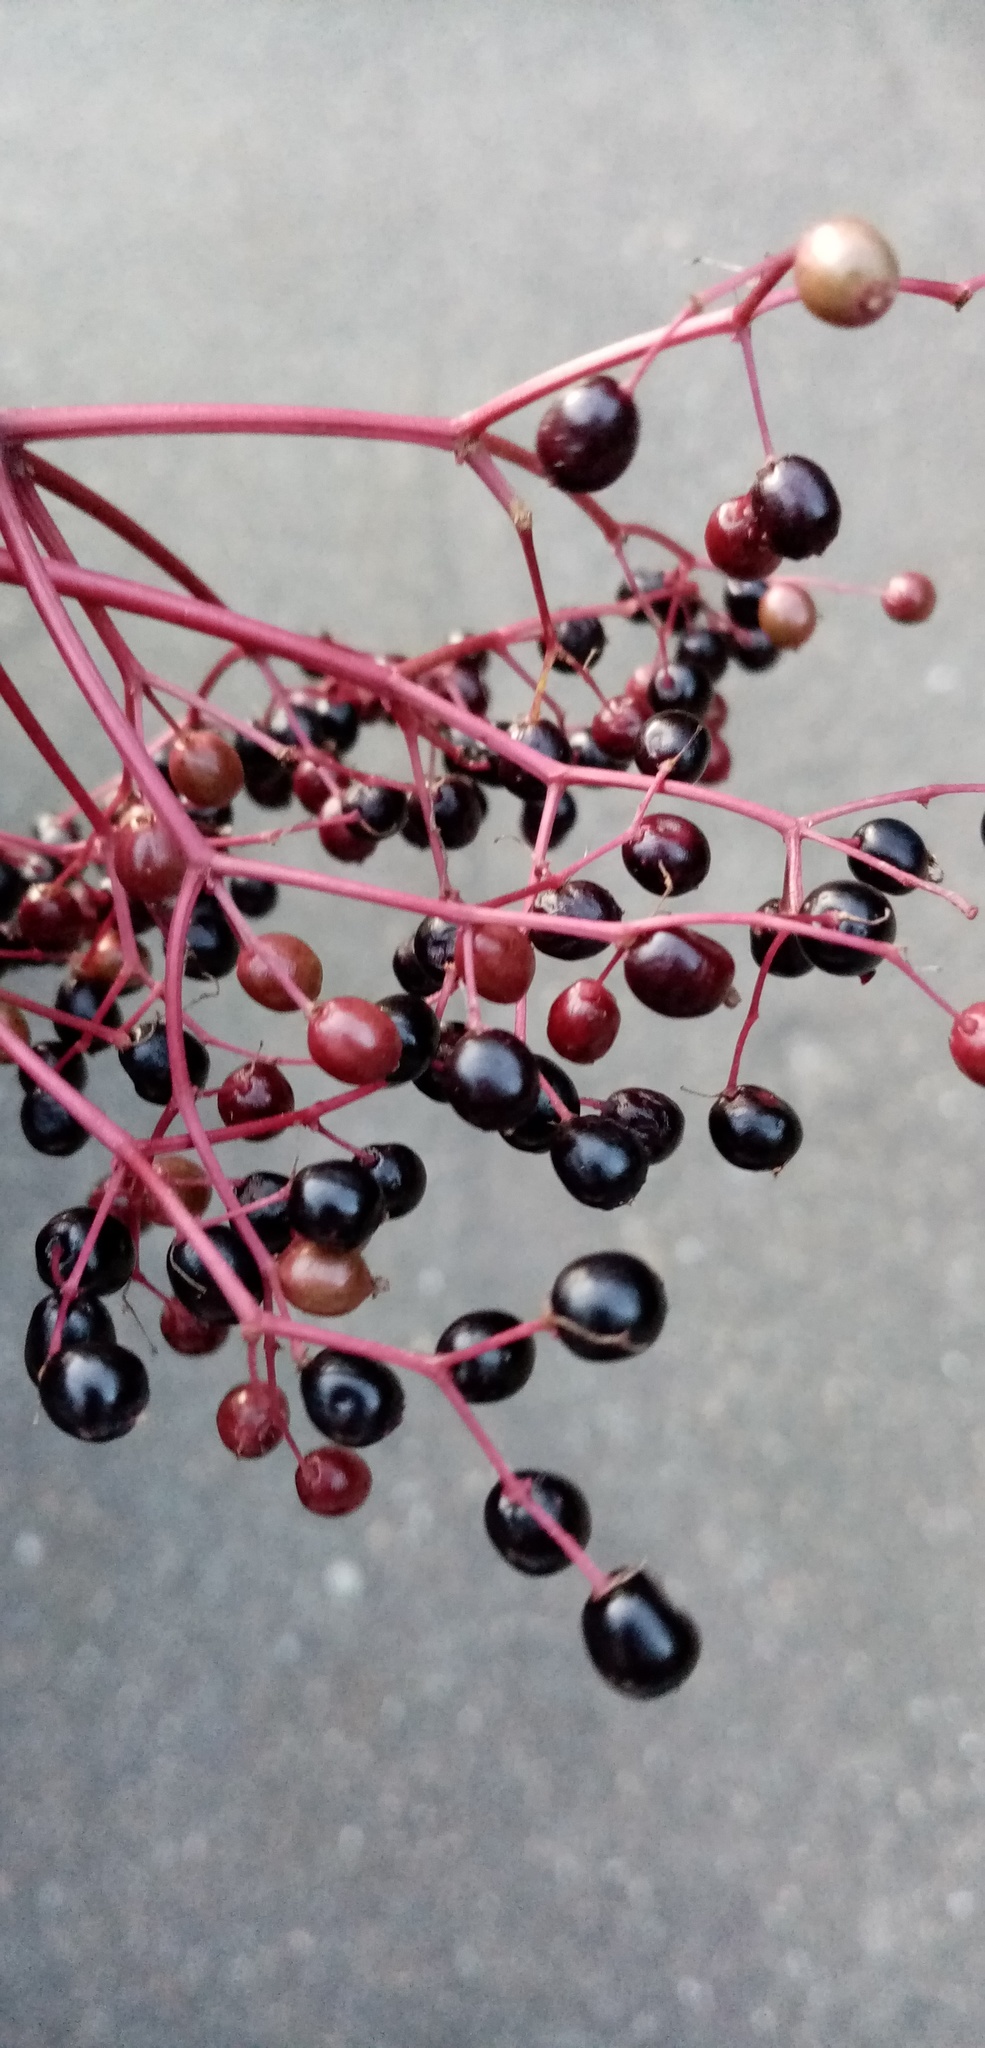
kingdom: Plantae
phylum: Tracheophyta
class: Magnoliopsida
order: Dipsacales
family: Viburnaceae
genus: Sambucus
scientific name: Sambucus nigra
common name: Elder
